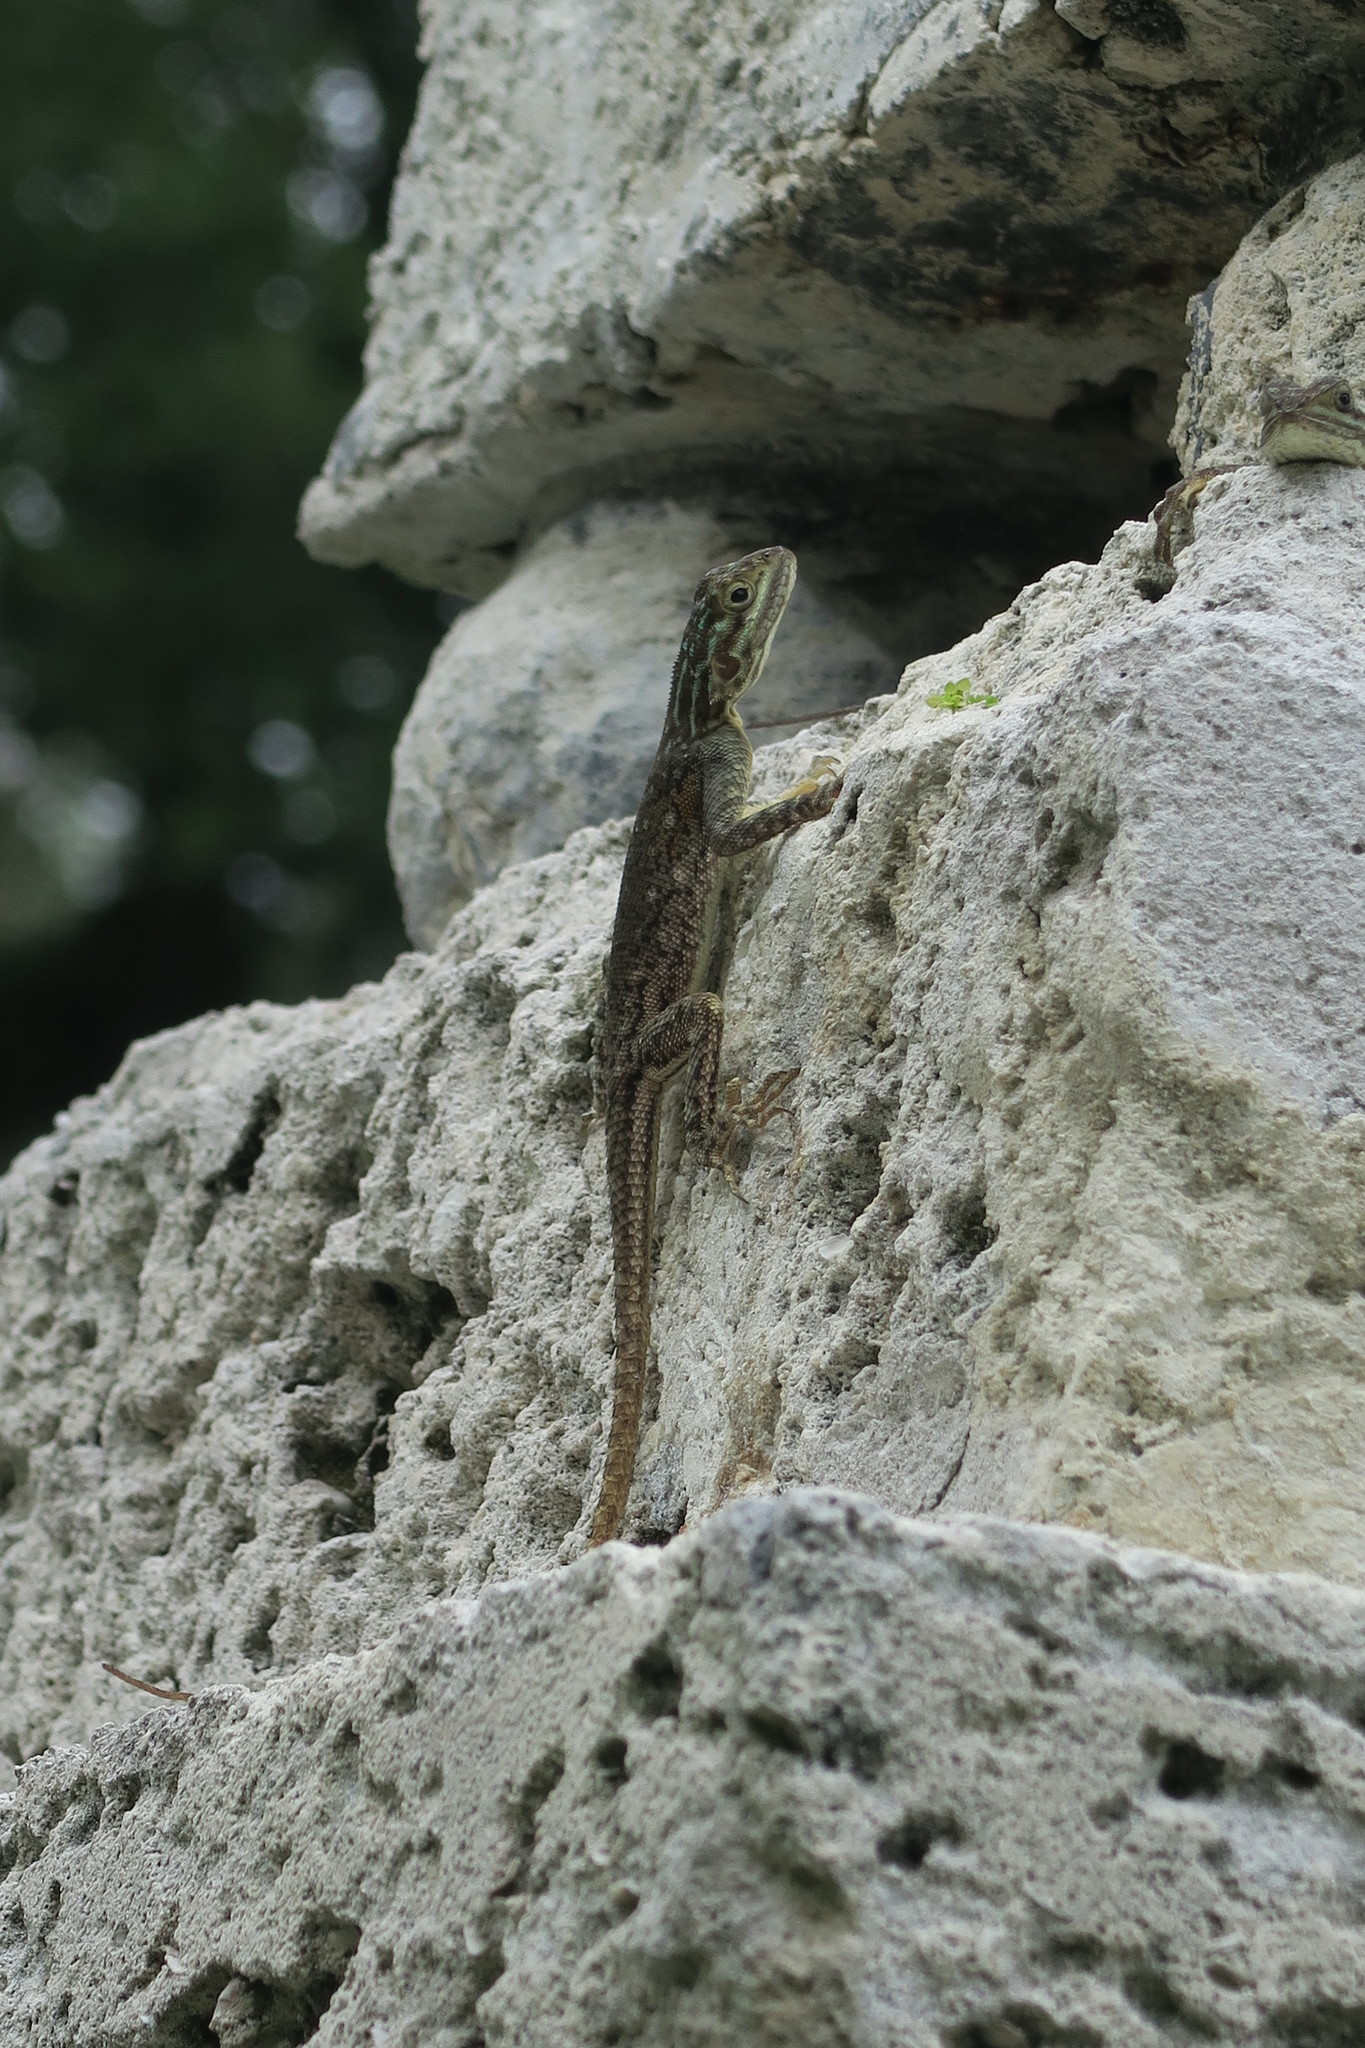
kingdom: Animalia
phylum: Chordata
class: Squamata
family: Agamidae
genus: Agama
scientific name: Agama picticauda
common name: Red-headed agama
